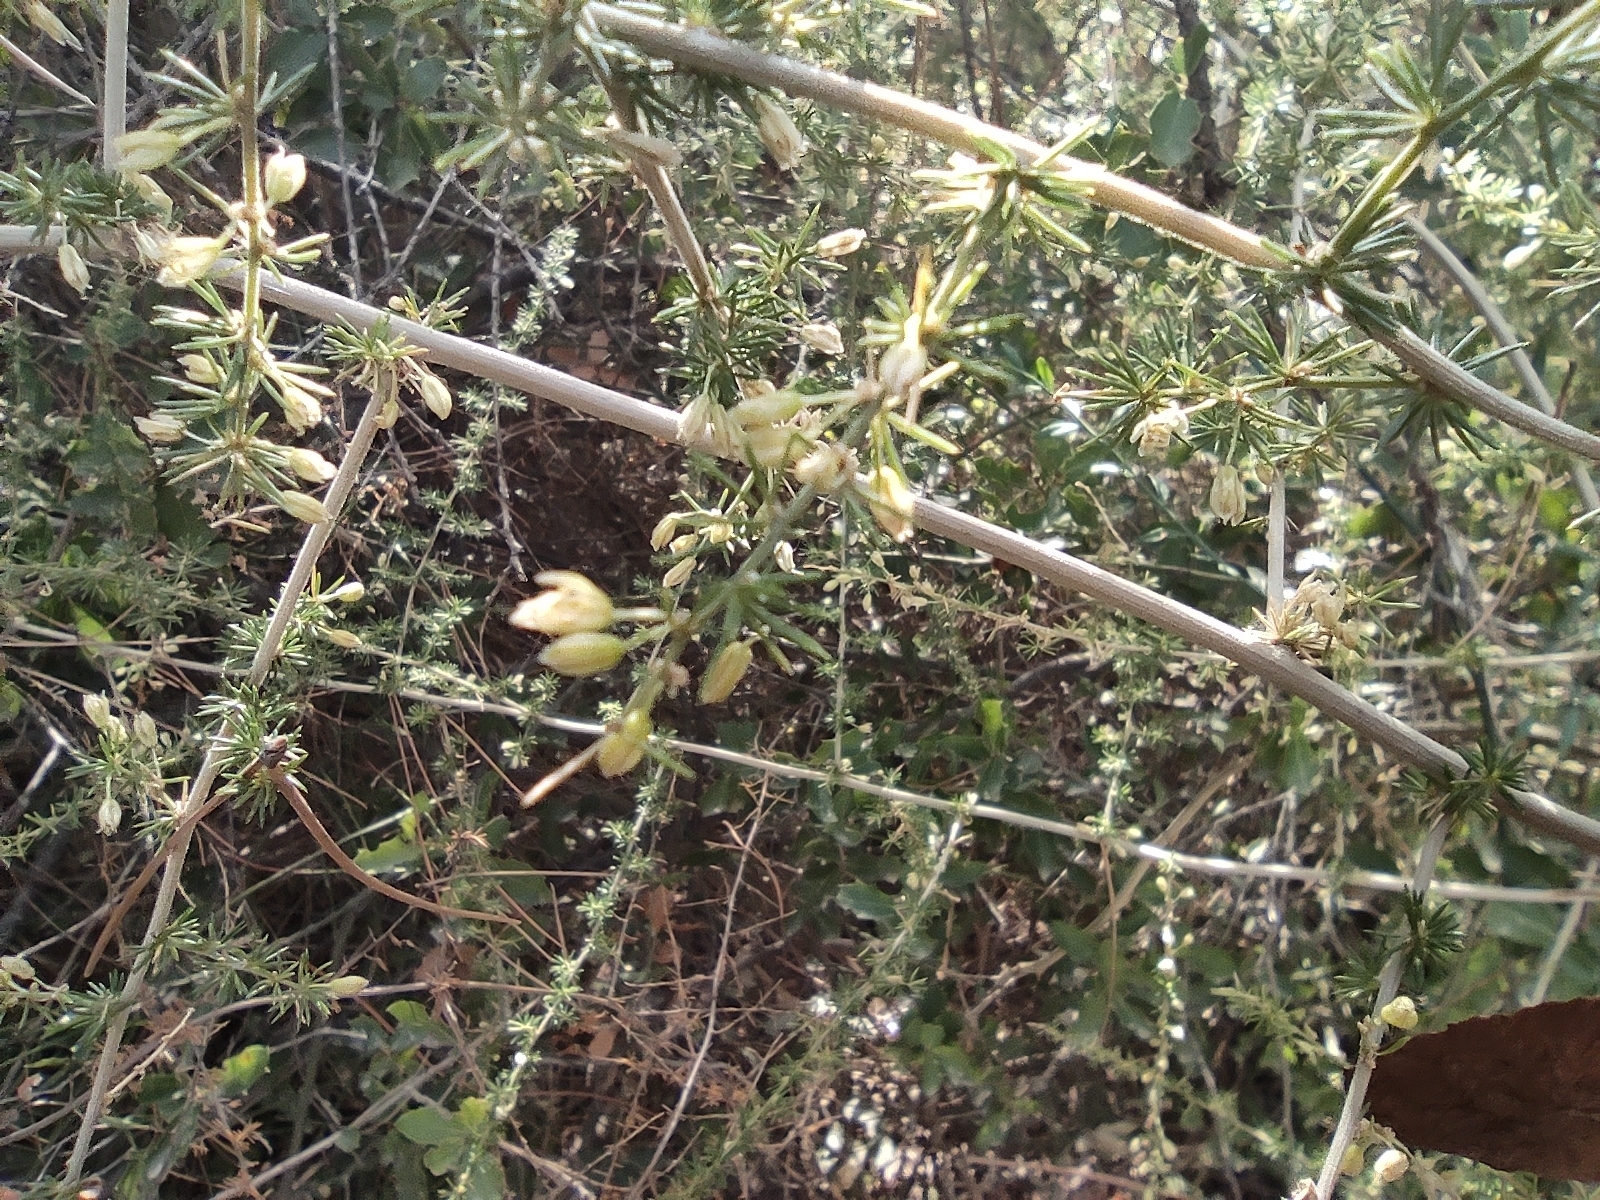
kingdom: Plantae
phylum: Tracheophyta
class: Liliopsida
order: Asparagales
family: Asparagaceae
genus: Asparagus
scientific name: Asparagus acutifolius
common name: Wild asparagus
